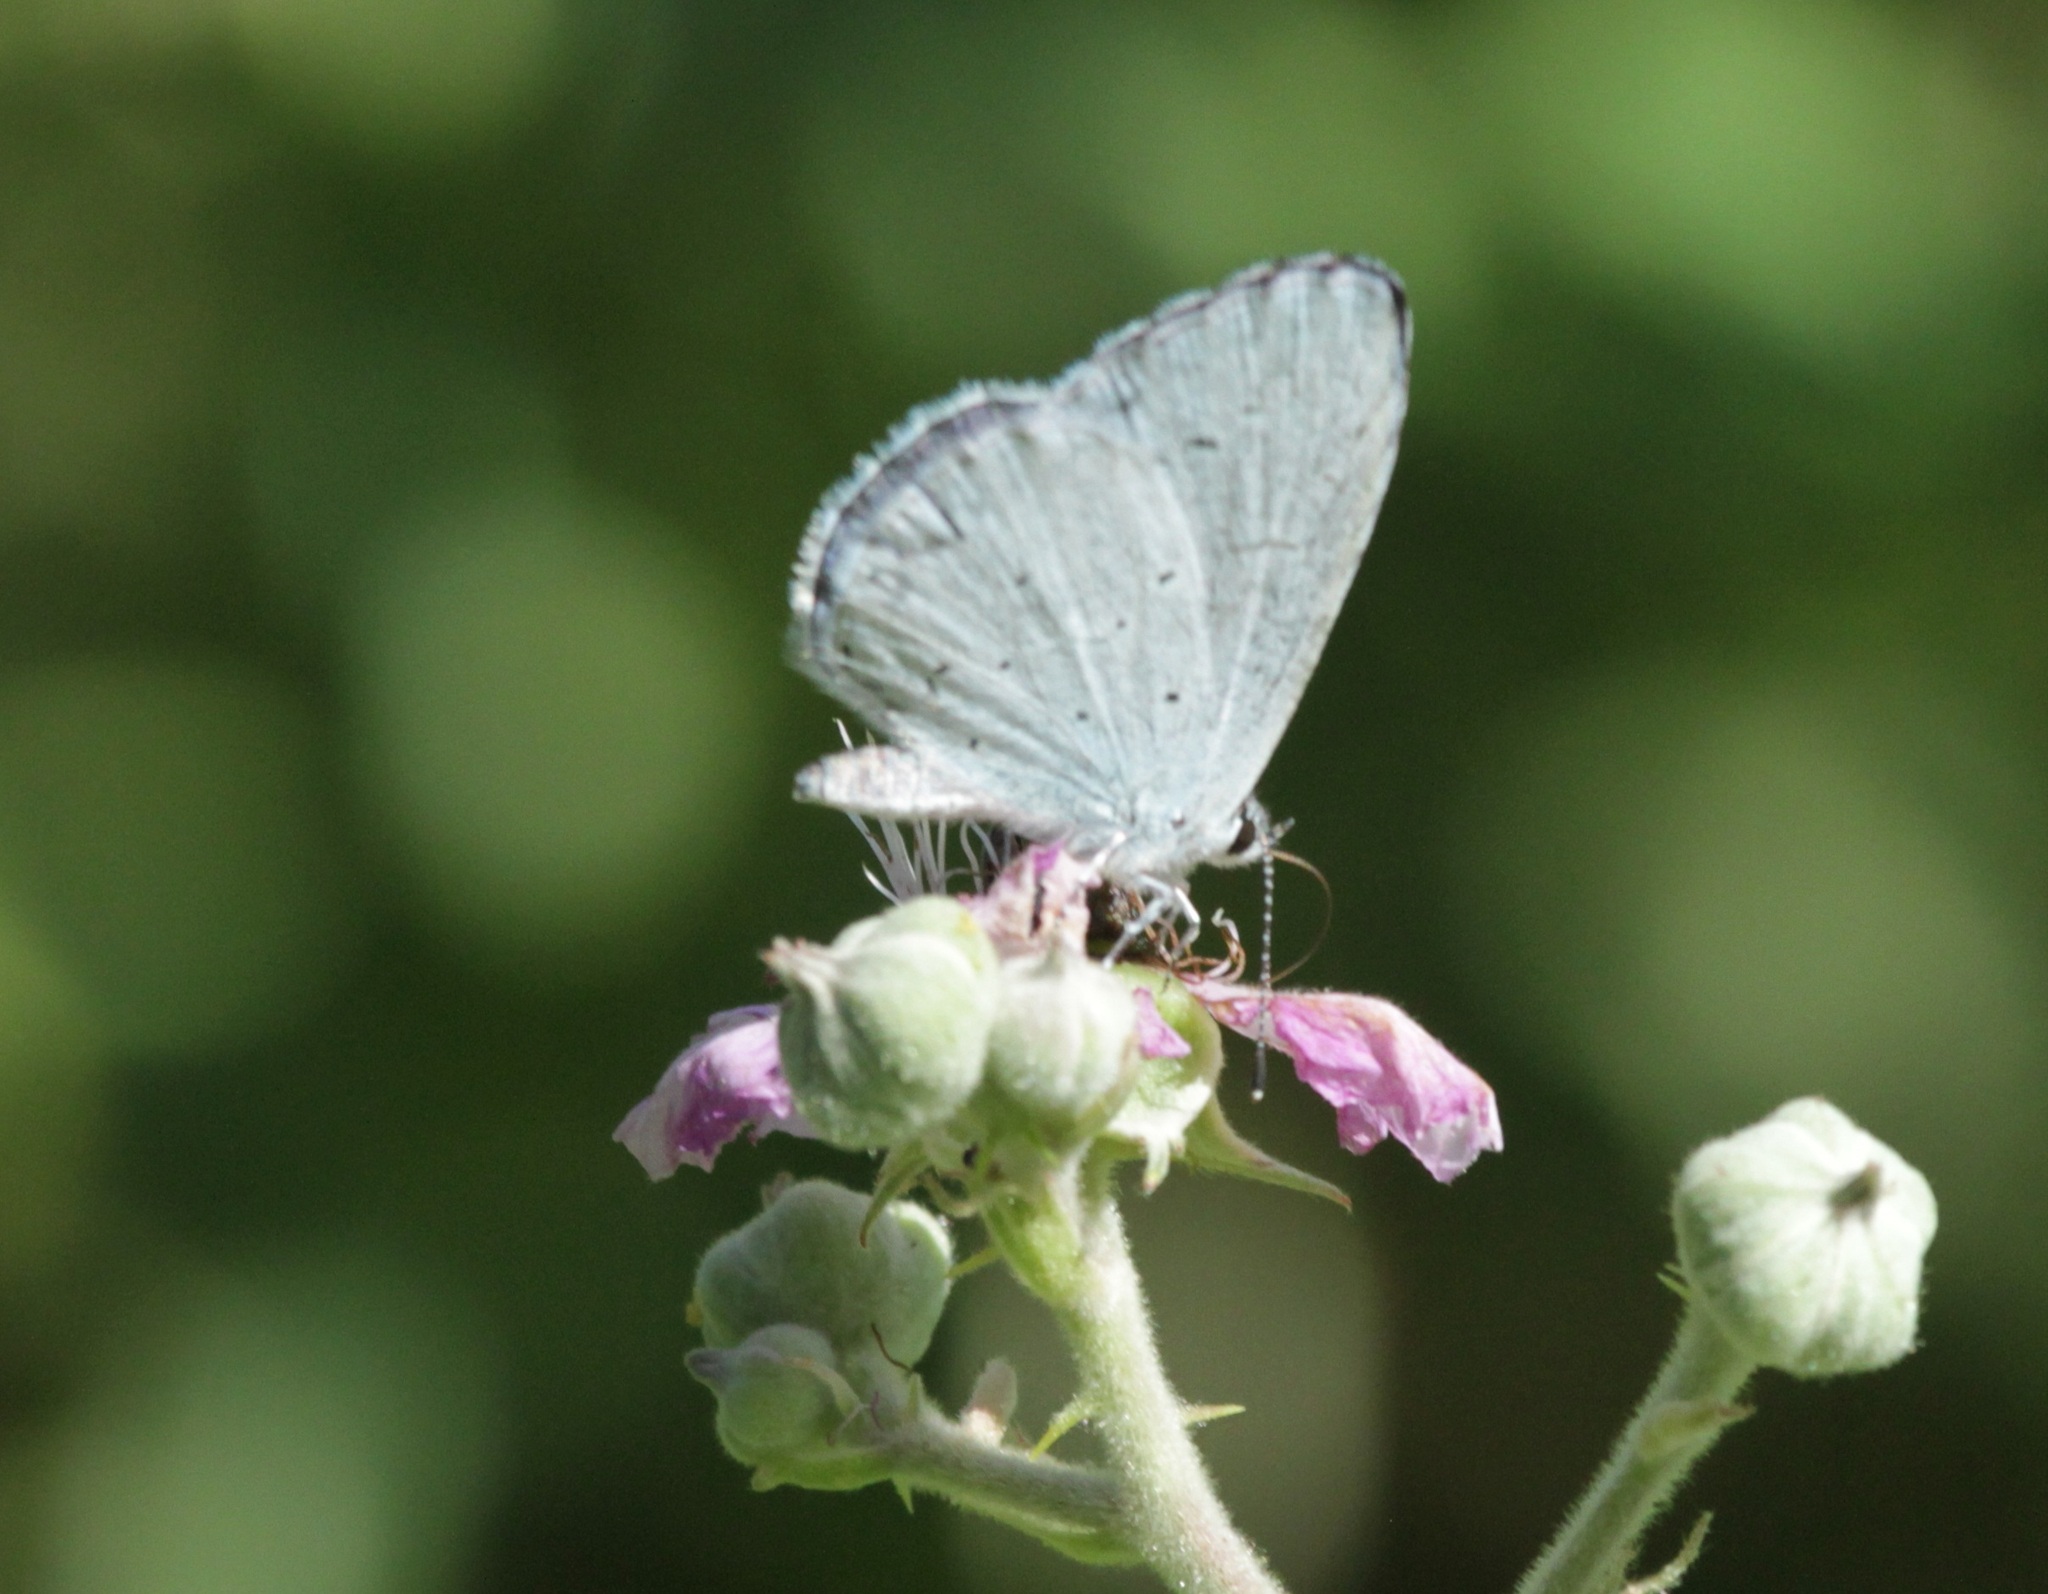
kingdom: Animalia
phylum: Arthropoda
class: Insecta
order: Lepidoptera
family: Lycaenidae
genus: Celastrina
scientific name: Celastrina argiolus
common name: Holly blue
